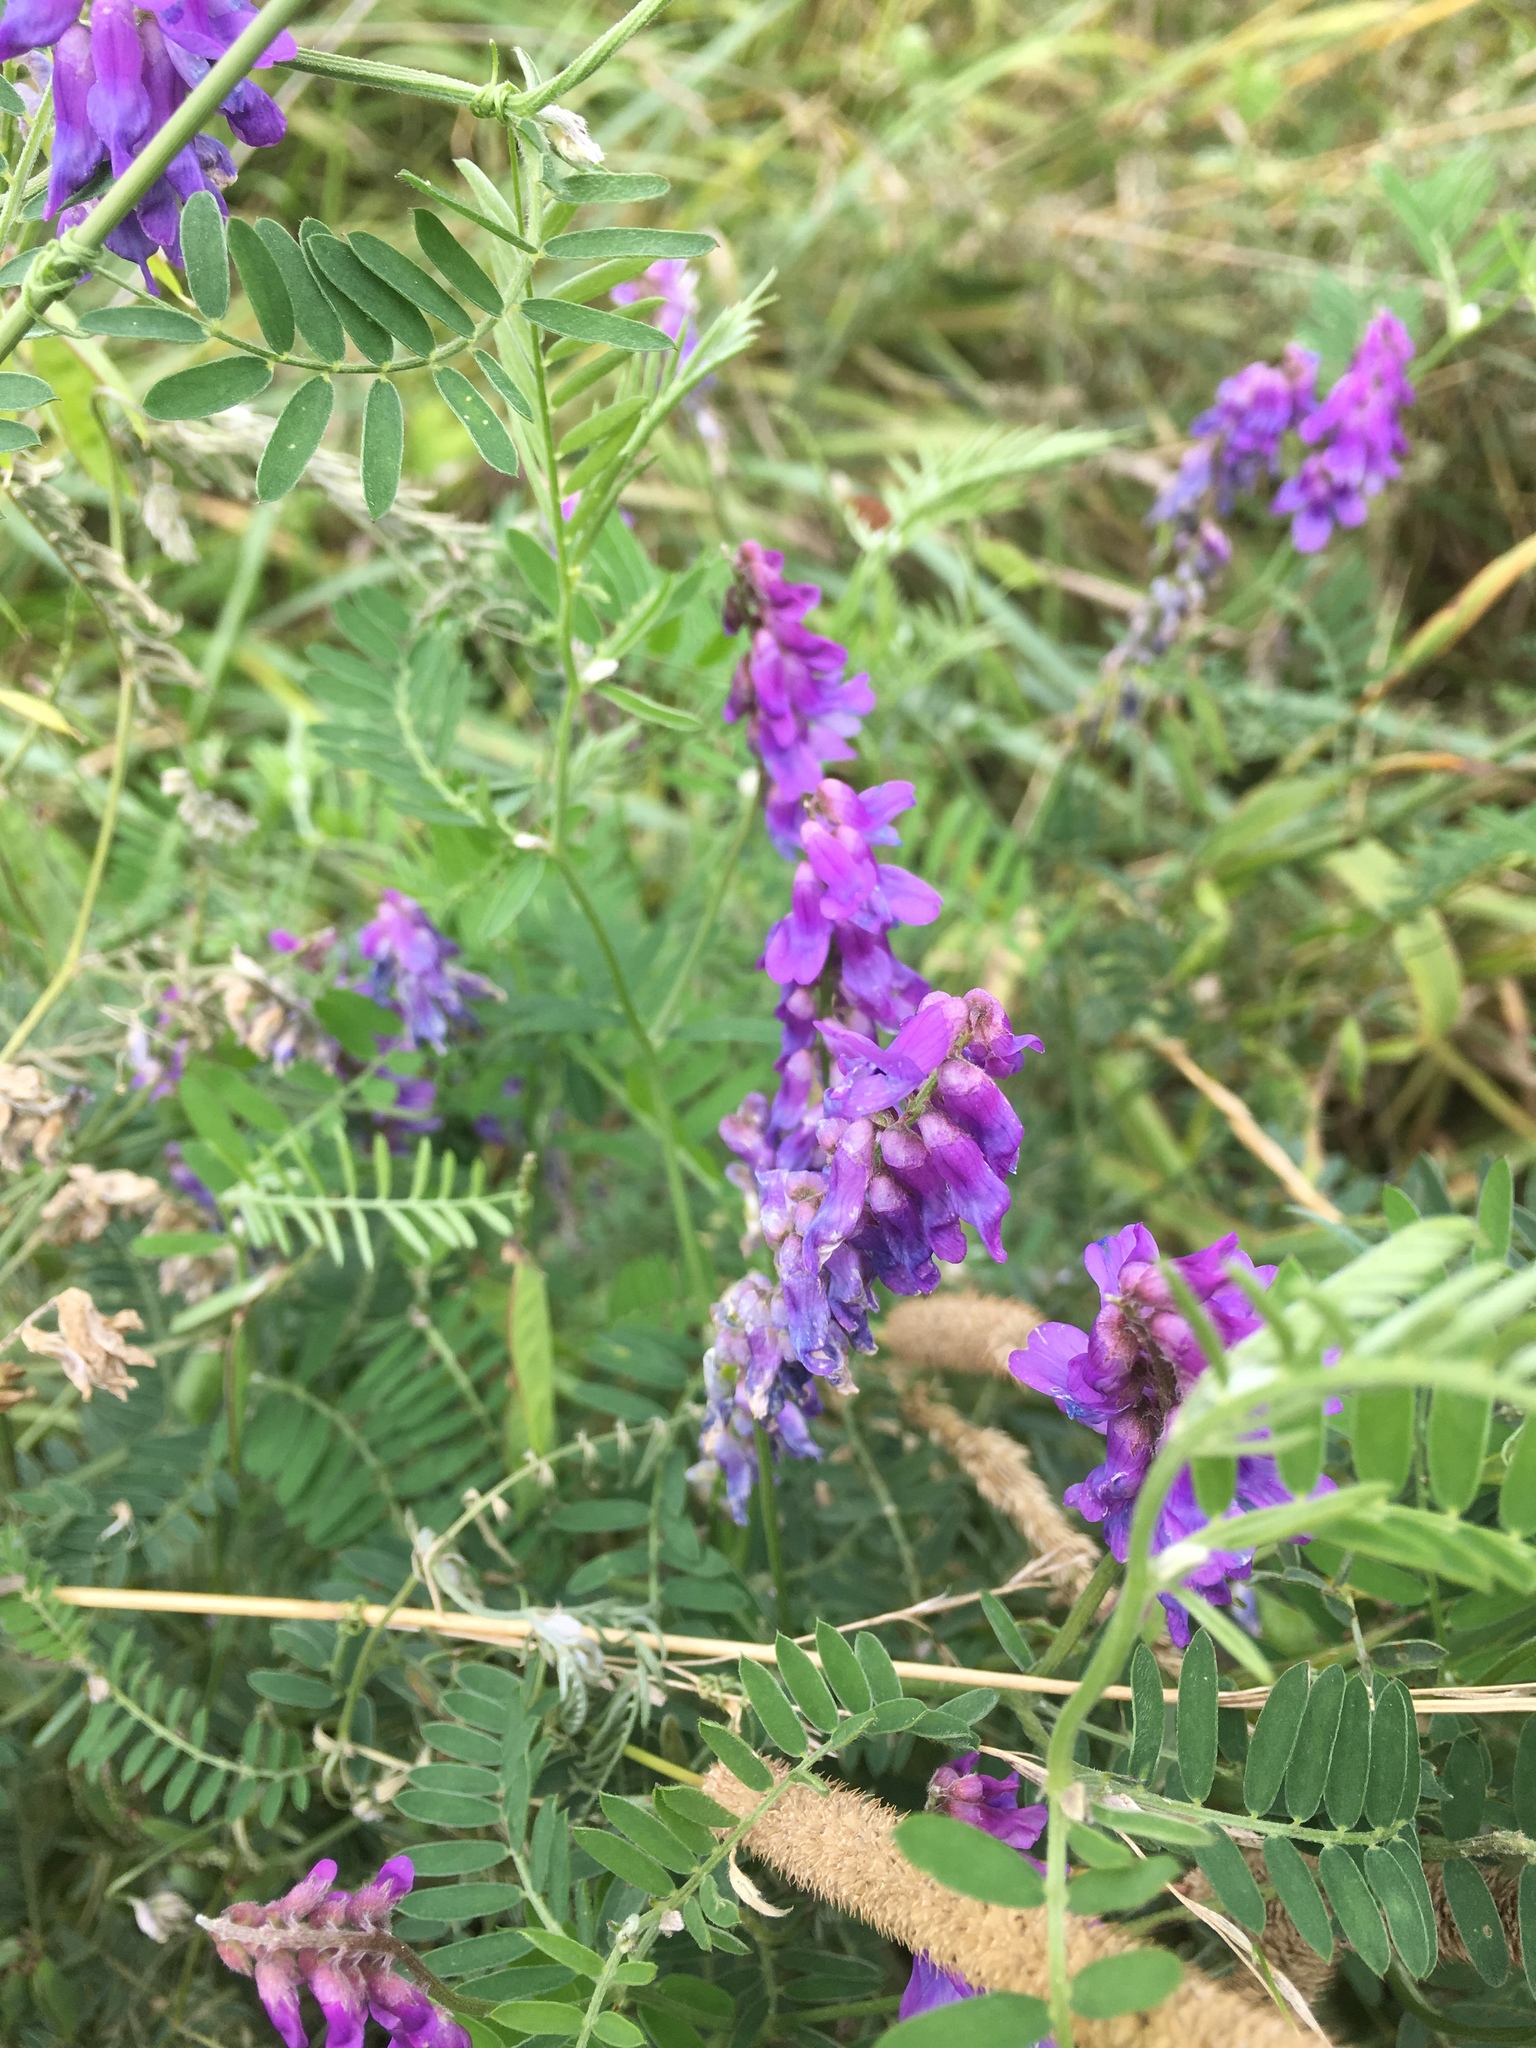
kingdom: Plantae
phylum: Tracheophyta
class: Magnoliopsida
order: Fabales
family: Fabaceae
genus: Vicia
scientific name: Vicia cracca
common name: Bird vetch
